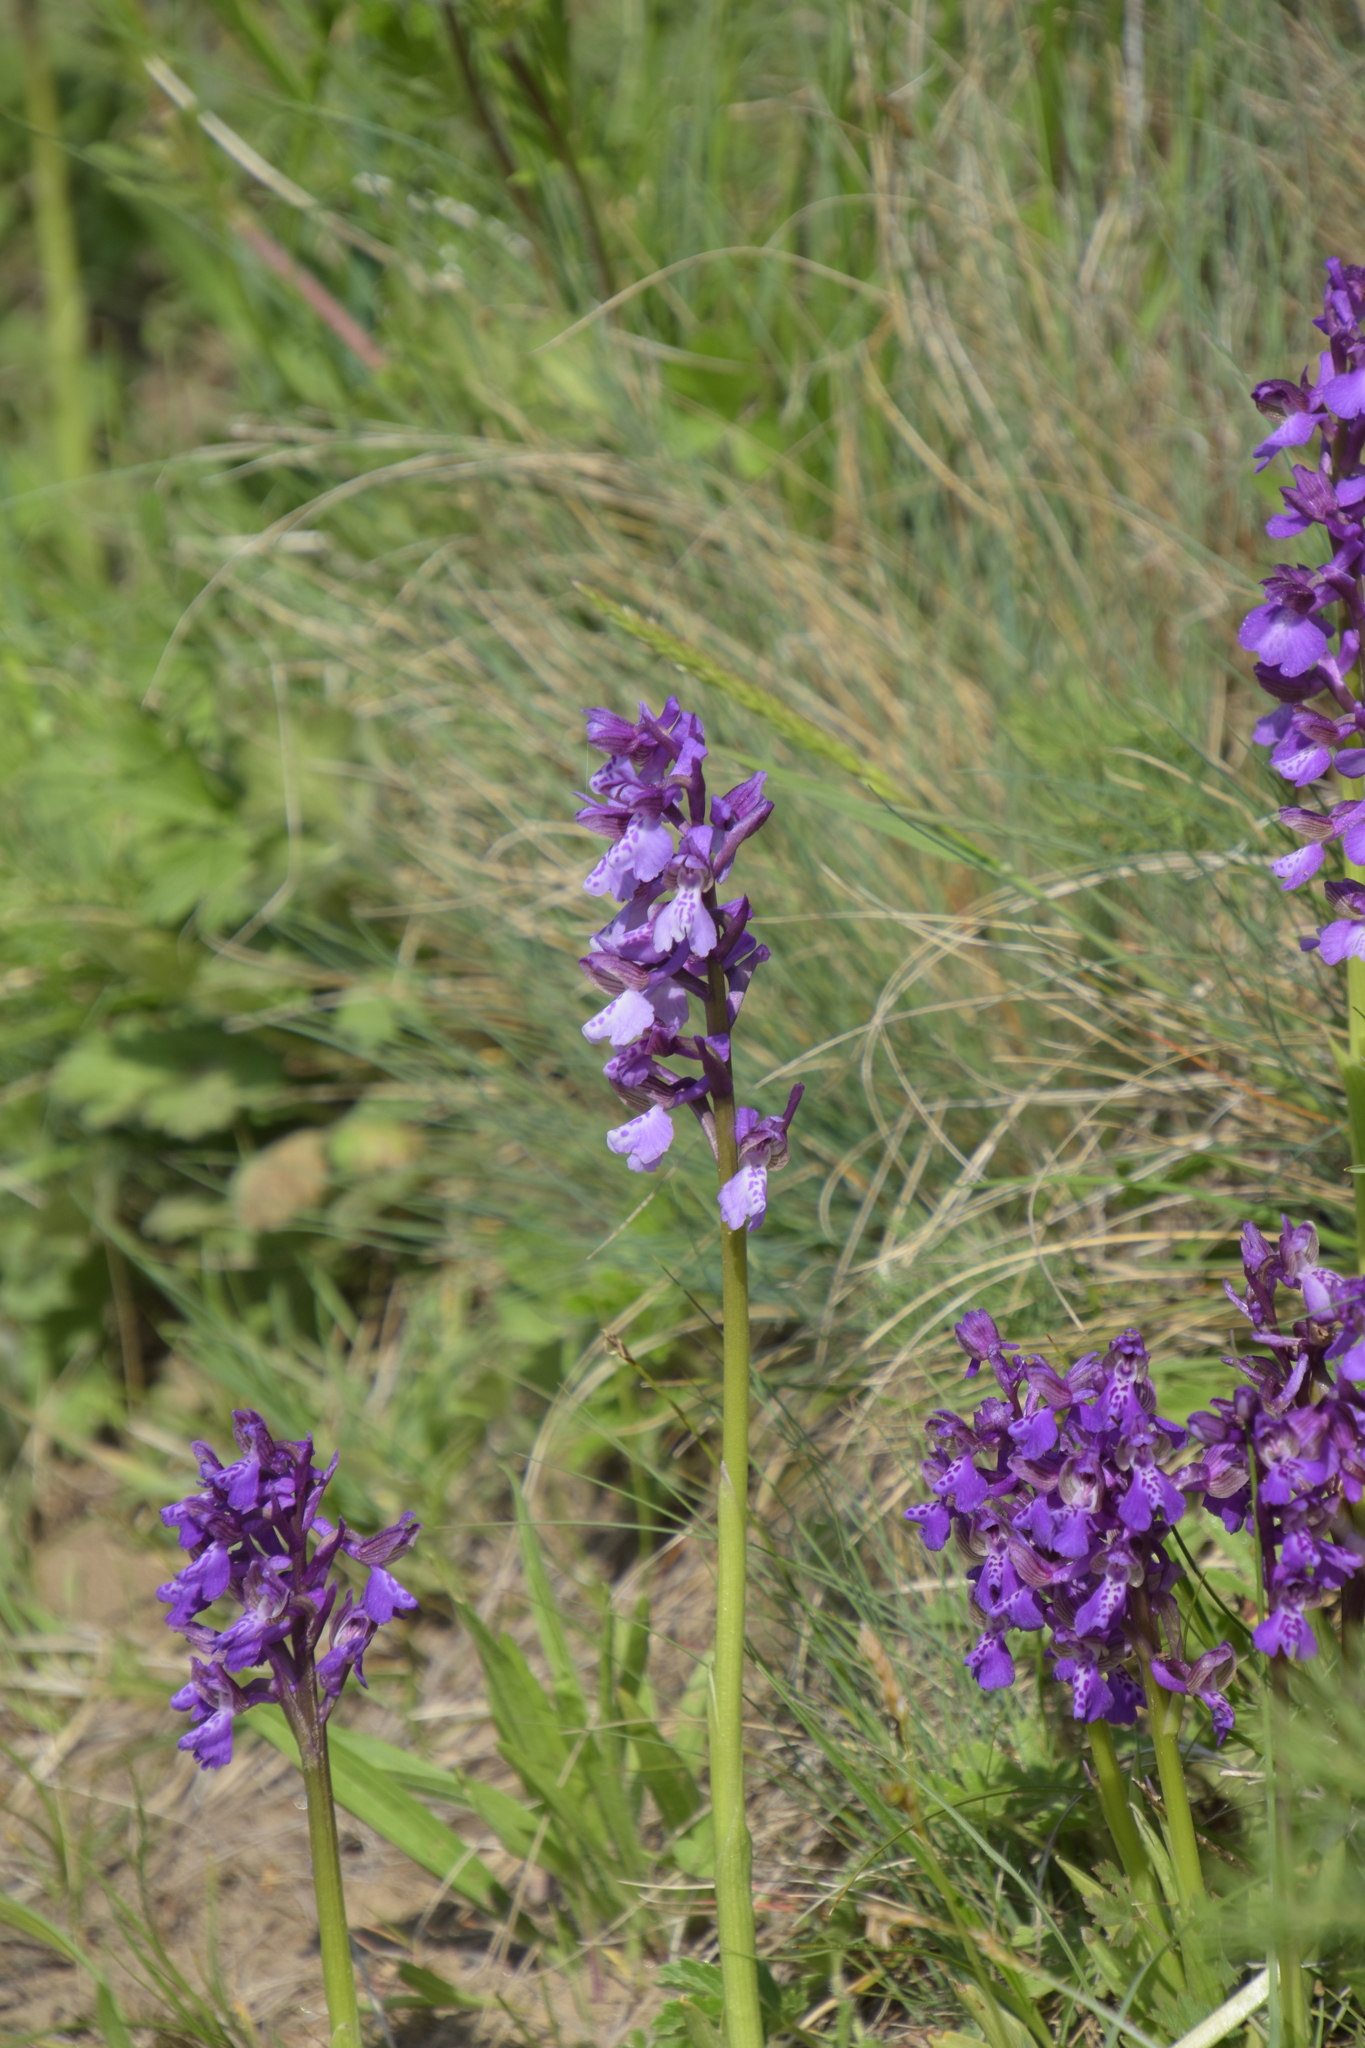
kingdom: Plantae
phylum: Tracheophyta
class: Liliopsida
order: Asparagales
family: Orchidaceae
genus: Anacamptis
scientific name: Anacamptis morio
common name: Green-winged orchid
